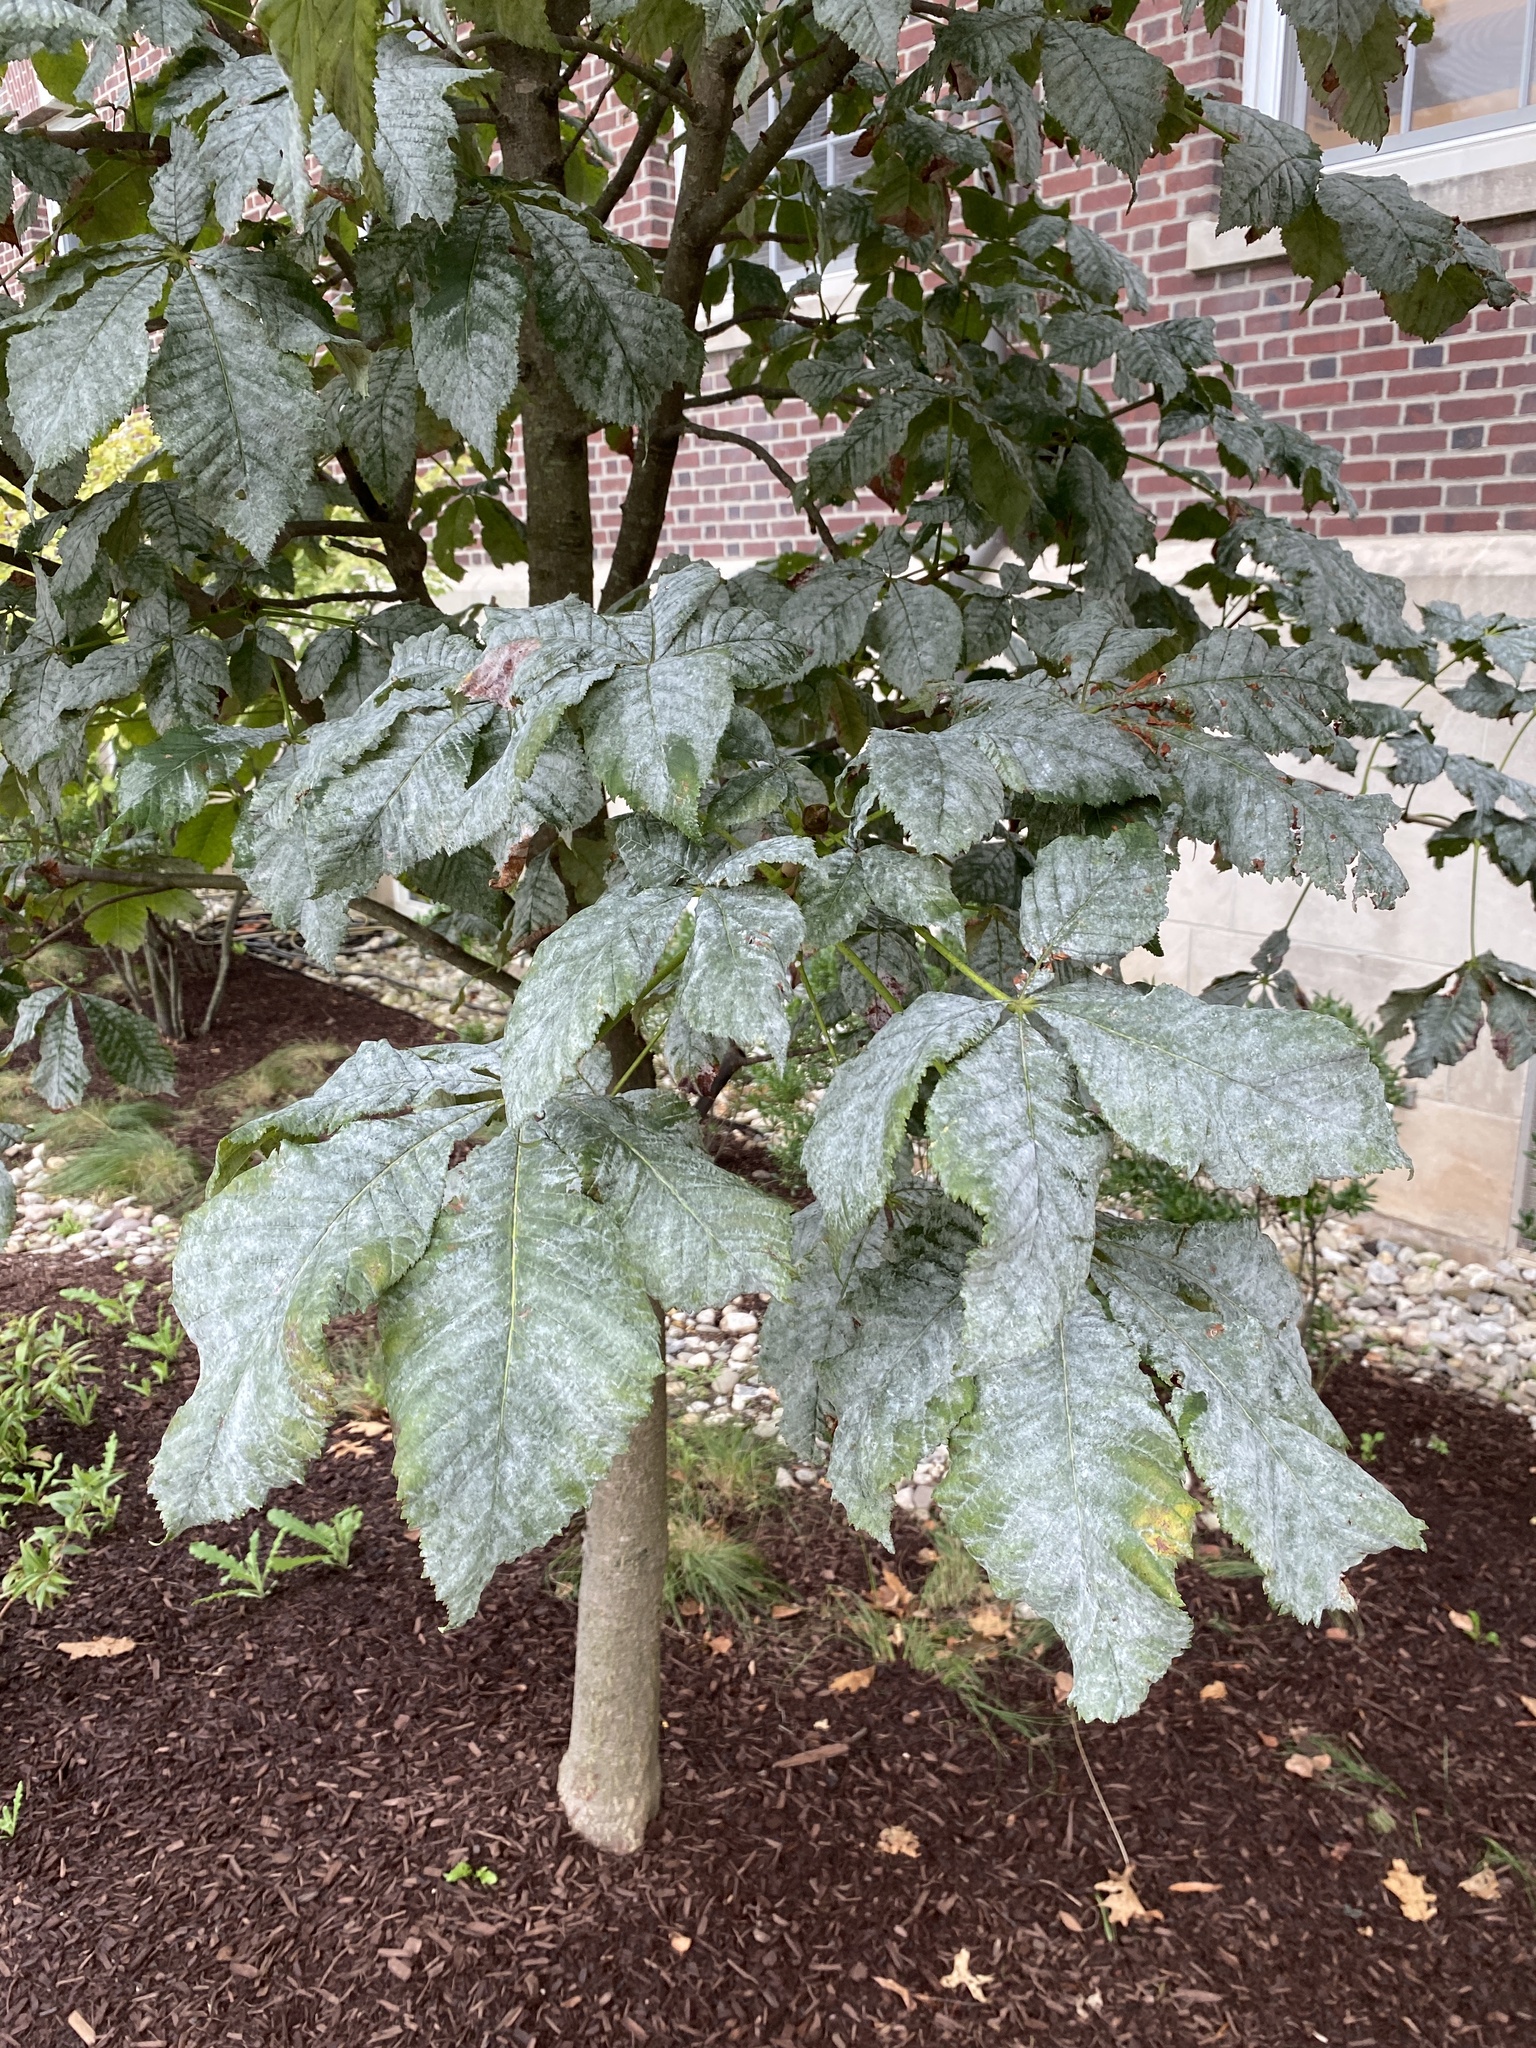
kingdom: Fungi
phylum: Ascomycota
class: Leotiomycetes
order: Helotiales
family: Erysiphaceae
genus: Erysiphe
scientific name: Erysiphe flexuosa
